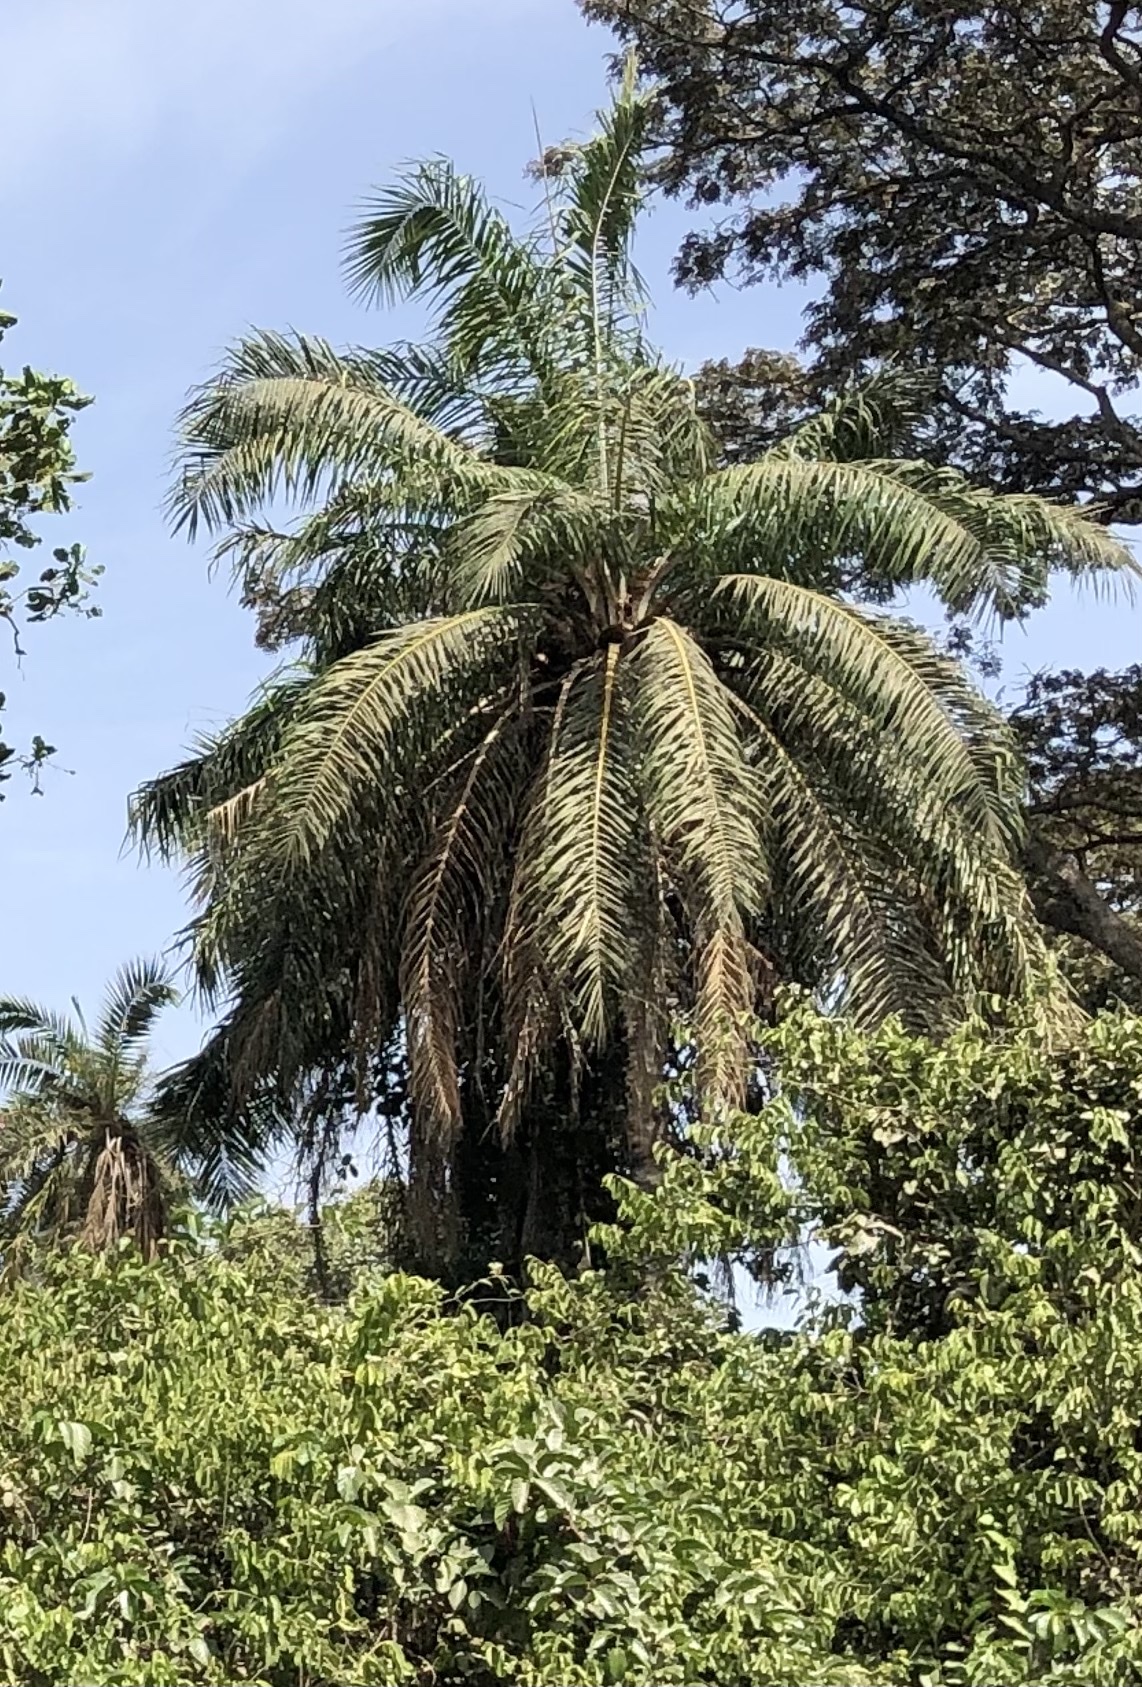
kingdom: Plantae
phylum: Tracheophyta
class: Liliopsida
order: Arecales
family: Arecaceae
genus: Elaeis
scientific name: Elaeis guineensis
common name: Oil palm
